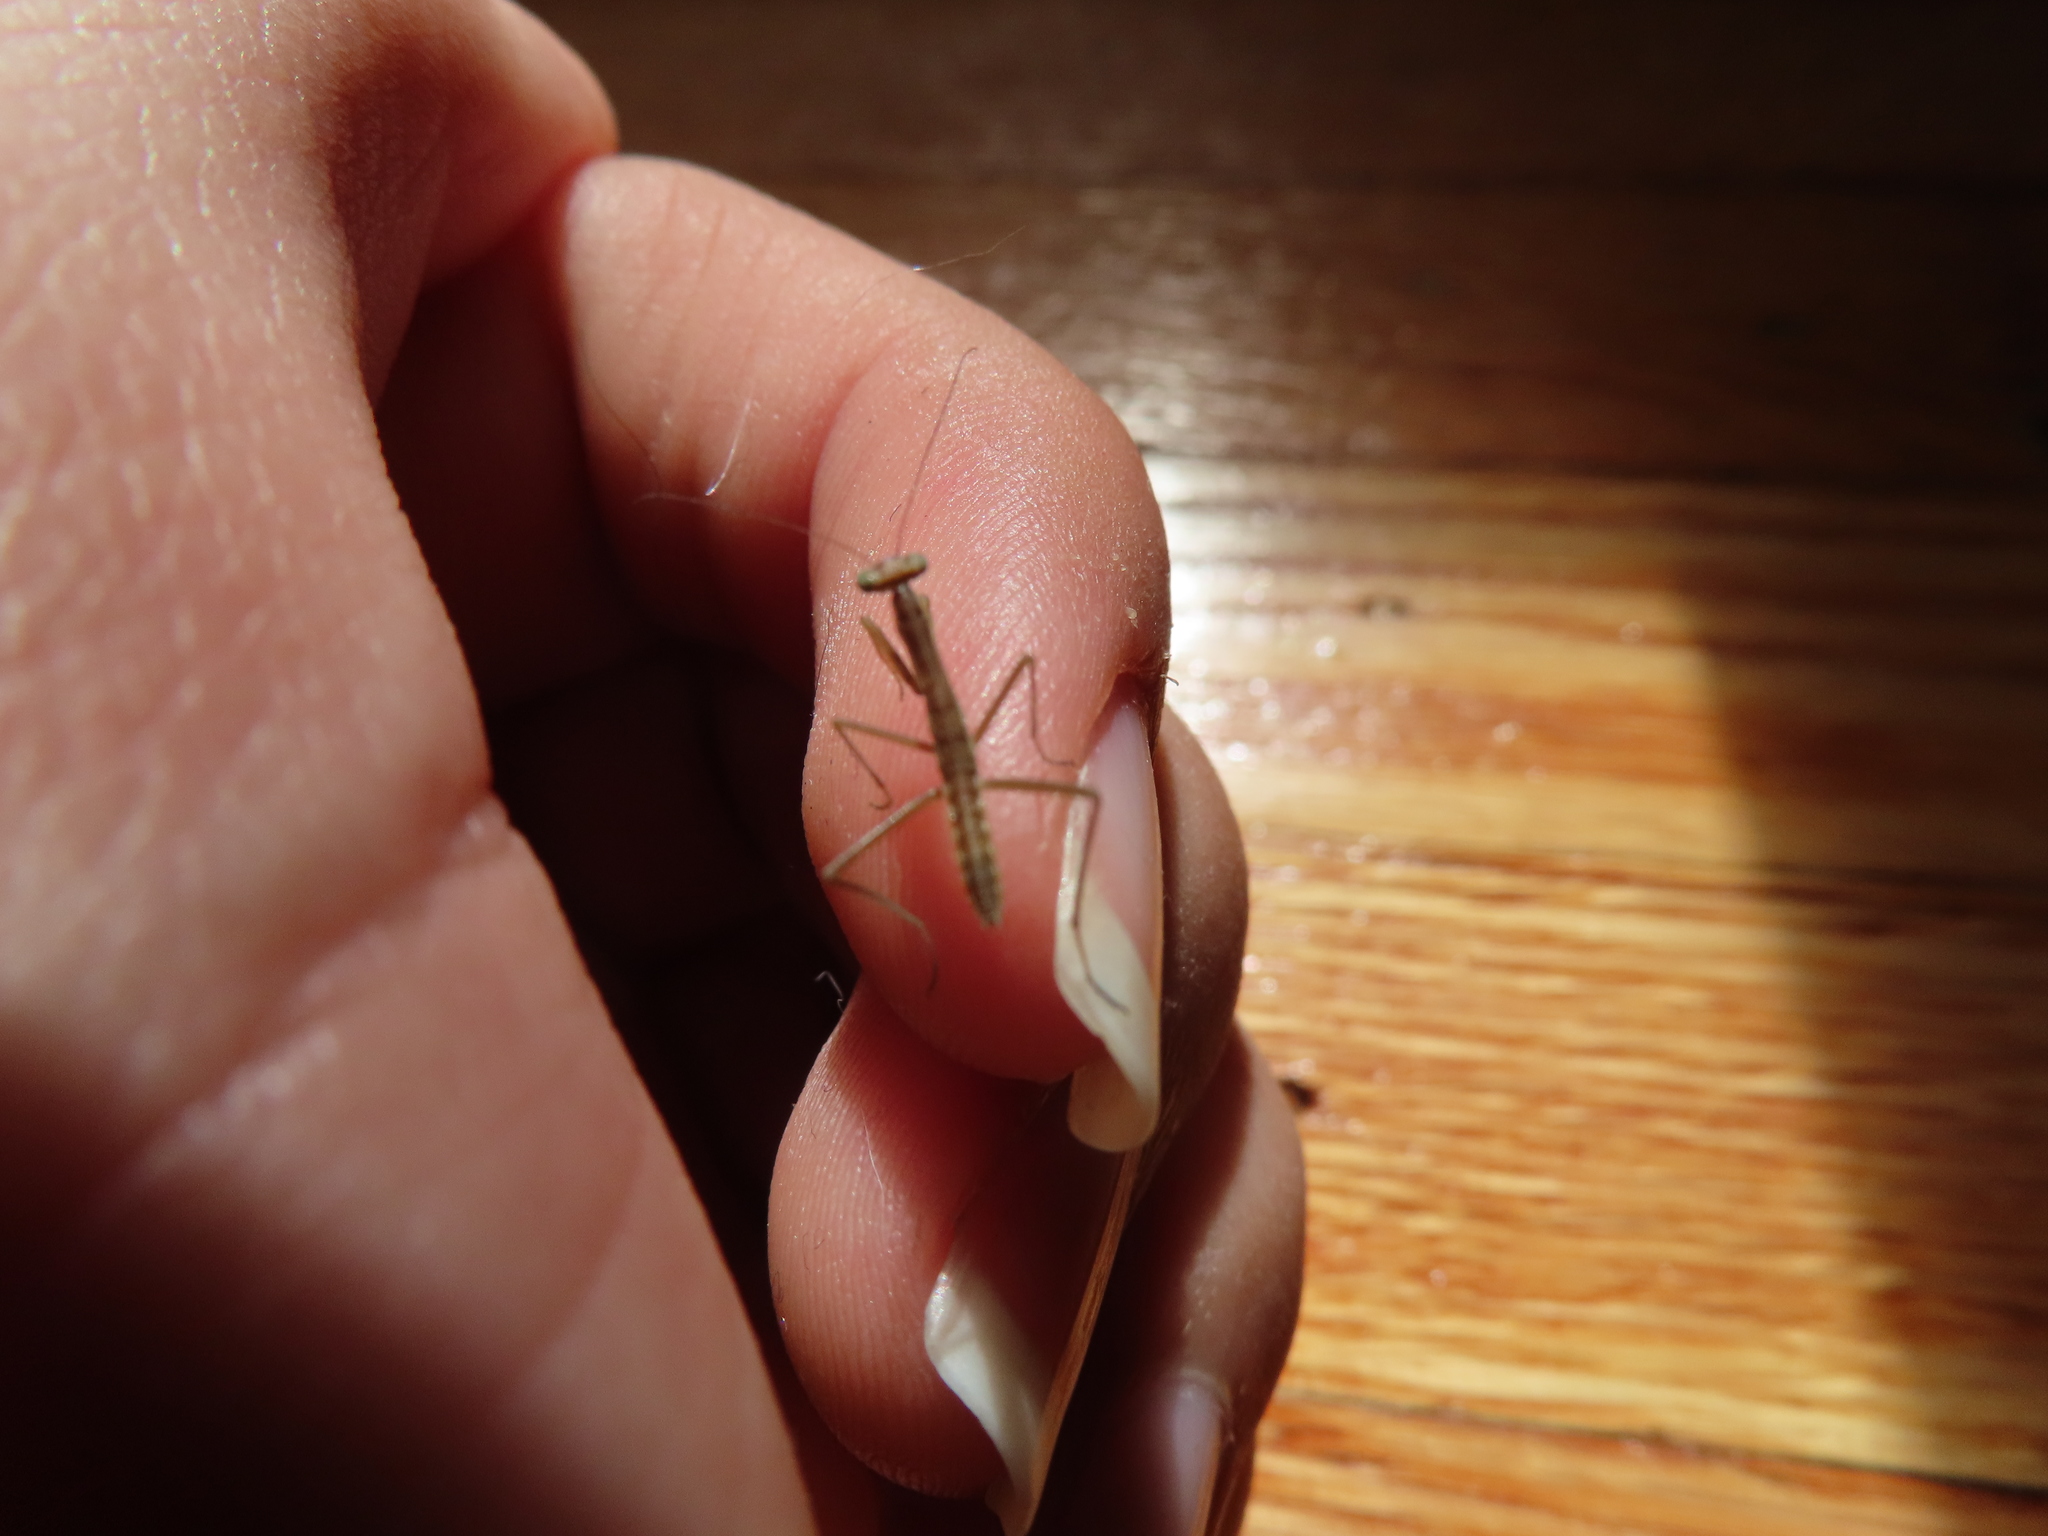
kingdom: Animalia
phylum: Arthropoda
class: Insecta
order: Mantodea
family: Mantidae
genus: Tenodera
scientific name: Tenodera sinensis
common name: Chinese mantis
